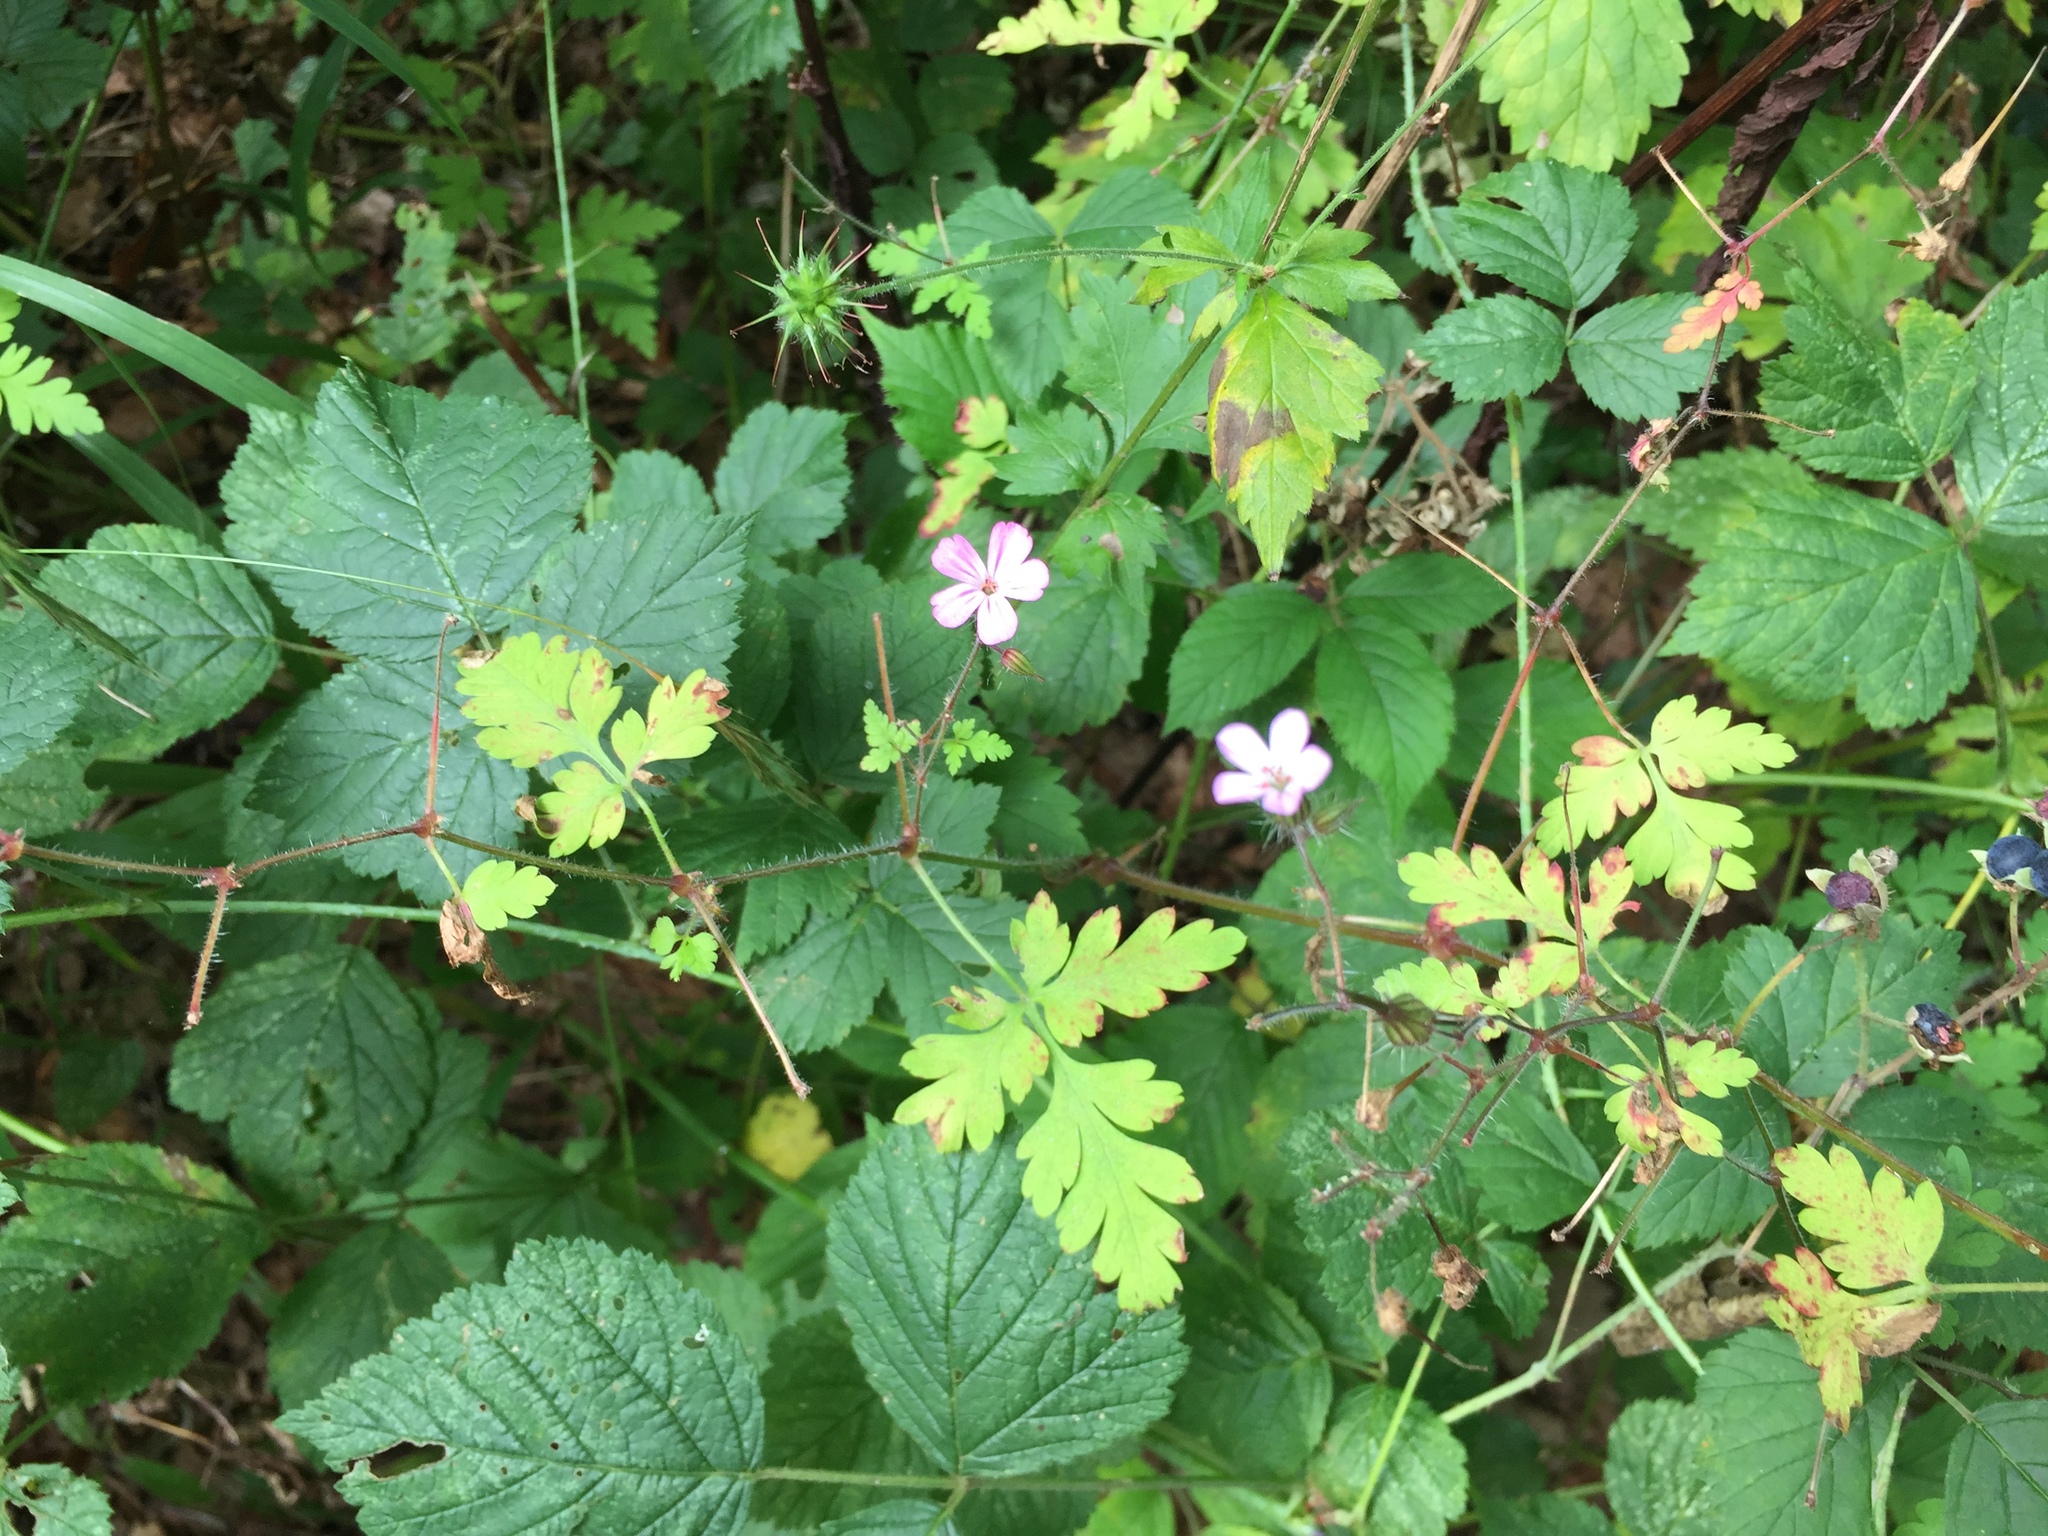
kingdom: Plantae
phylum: Tracheophyta
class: Magnoliopsida
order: Geraniales
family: Geraniaceae
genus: Geranium
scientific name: Geranium robertianum
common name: Herb-robert
